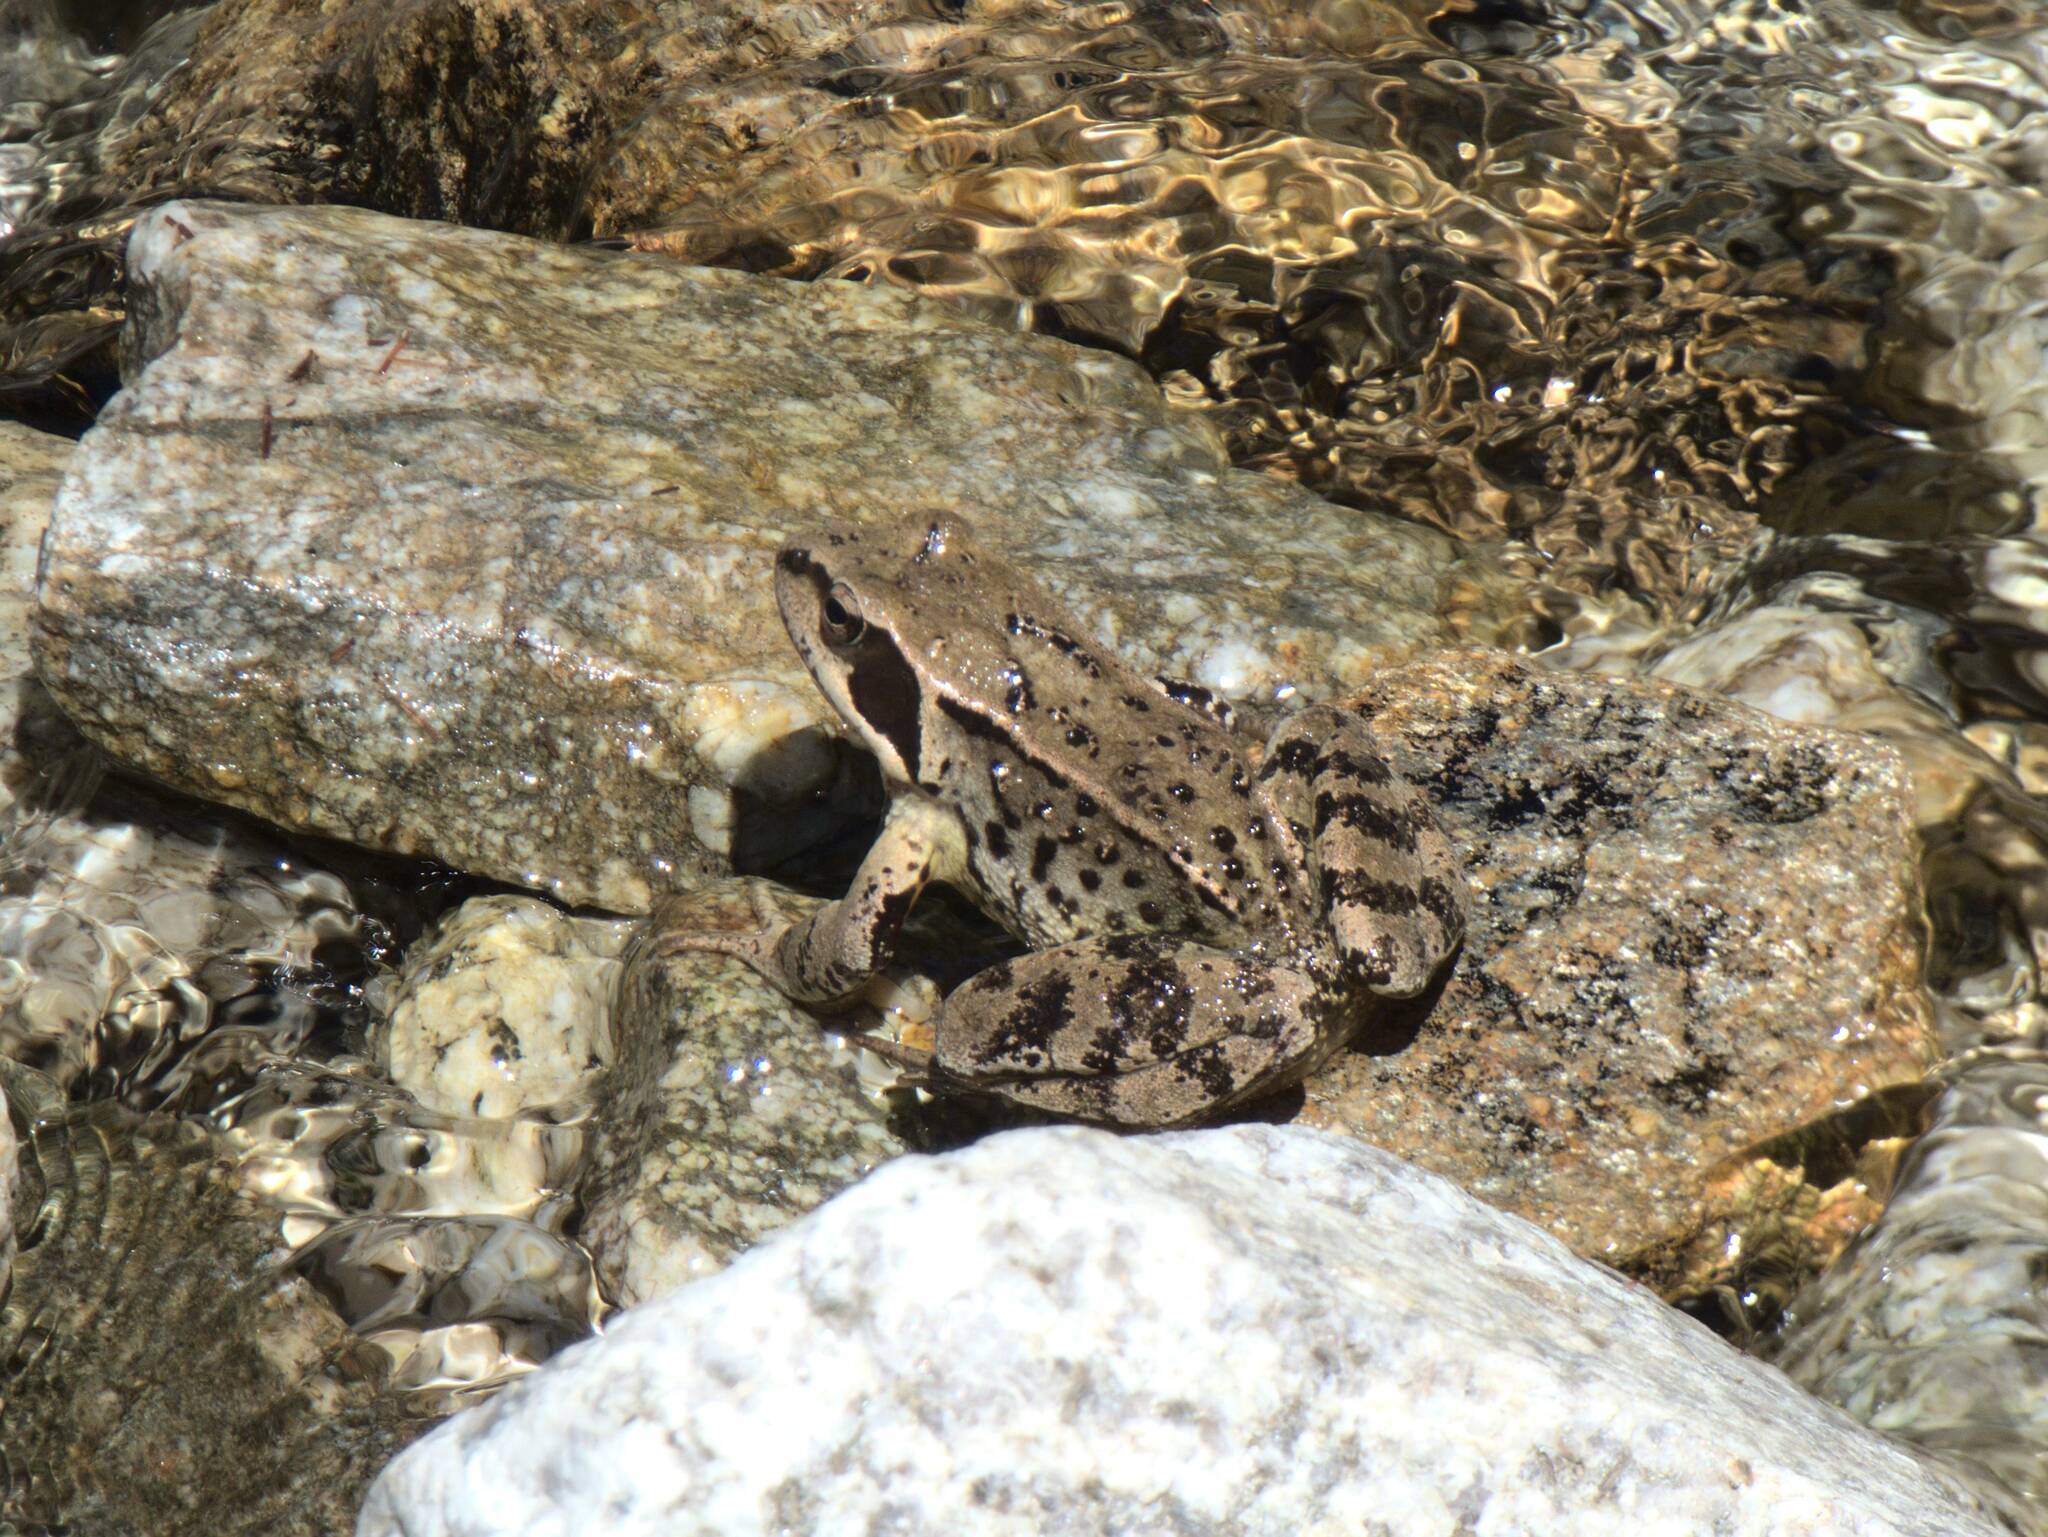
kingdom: Animalia
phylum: Chordata
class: Amphibia
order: Anura
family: Ranidae
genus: Rana
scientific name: Rana temporaria
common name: Common frog
